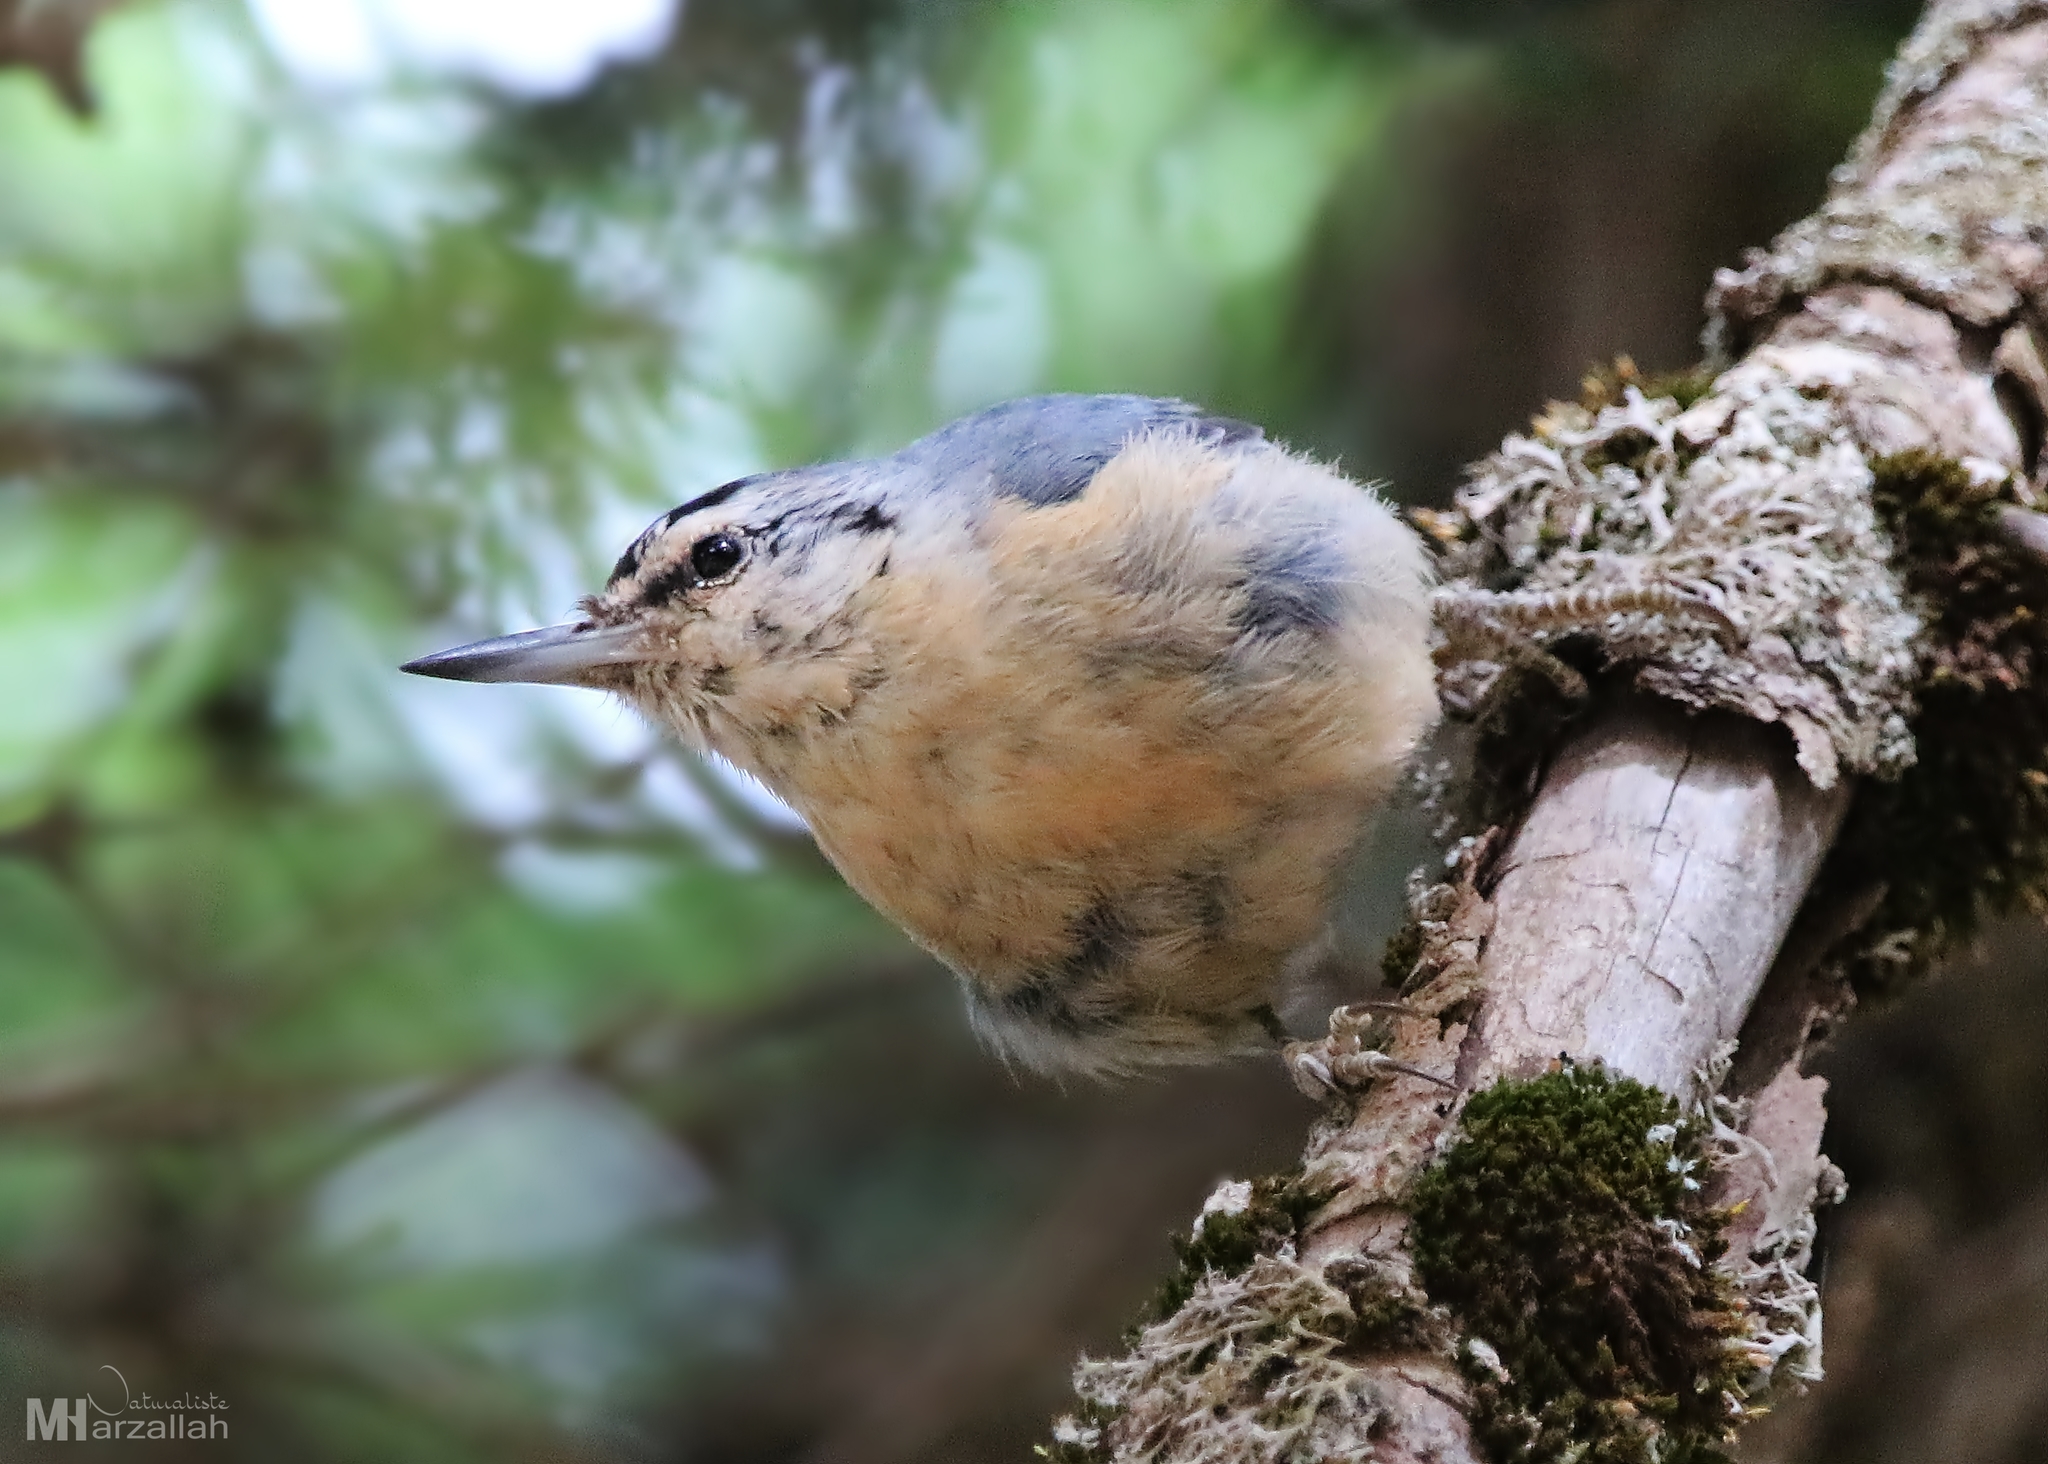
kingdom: Animalia
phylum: Chordata
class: Aves
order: Passeriformes
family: Sittidae
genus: Sitta
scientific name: Sitta ledanti
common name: Algerian nuthatch
